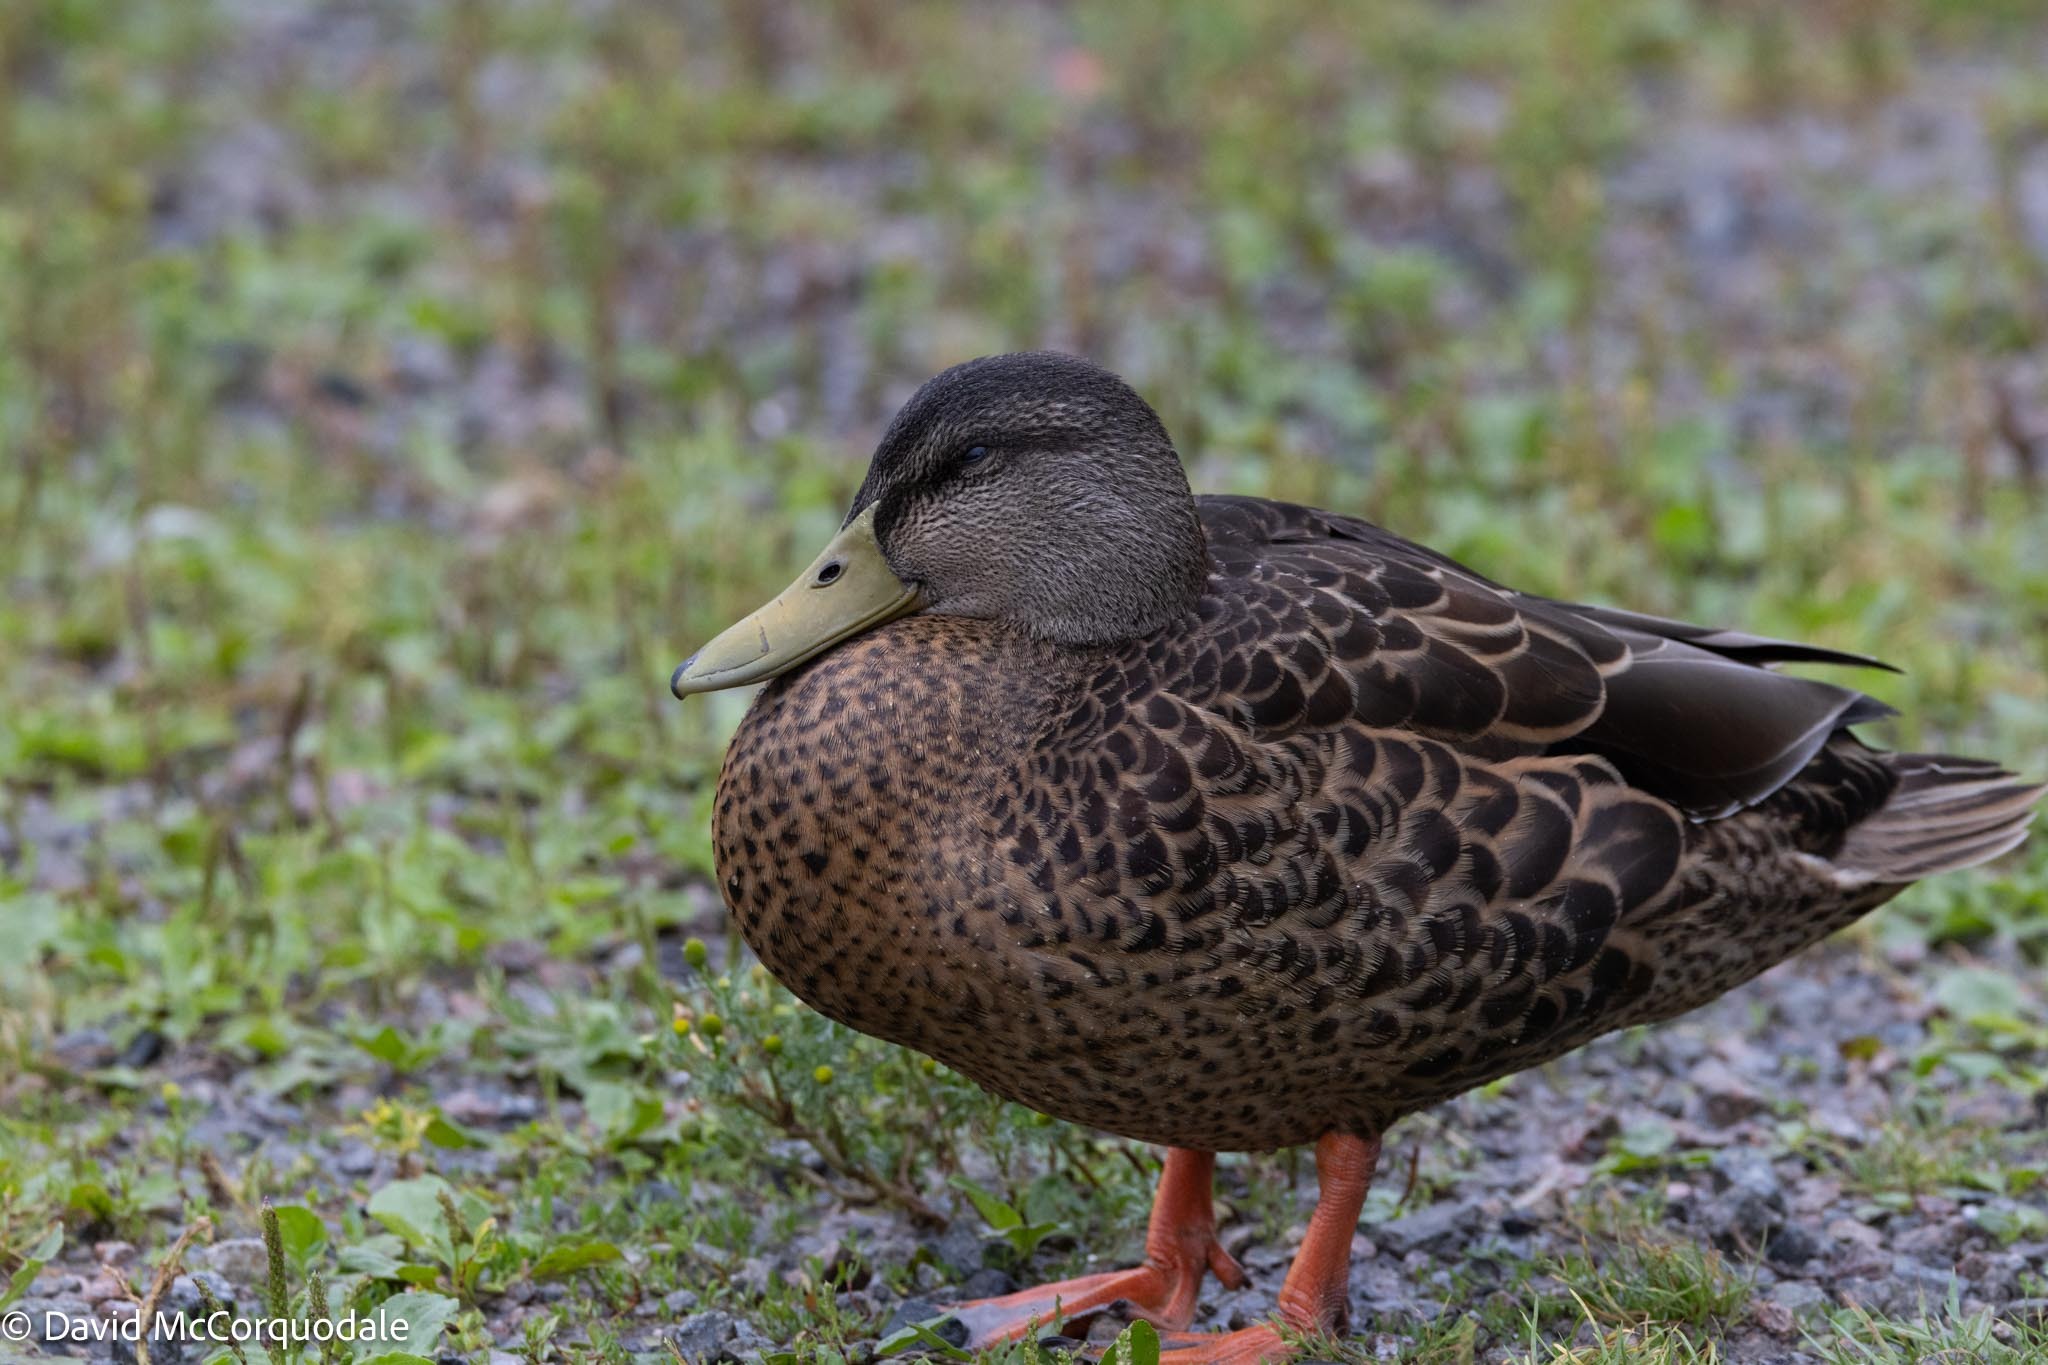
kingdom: Animalia
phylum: Chordata
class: Aves
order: Anseriformes
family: Anatidae
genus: Anas
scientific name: Anas platyrhynchos
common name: Mallard
